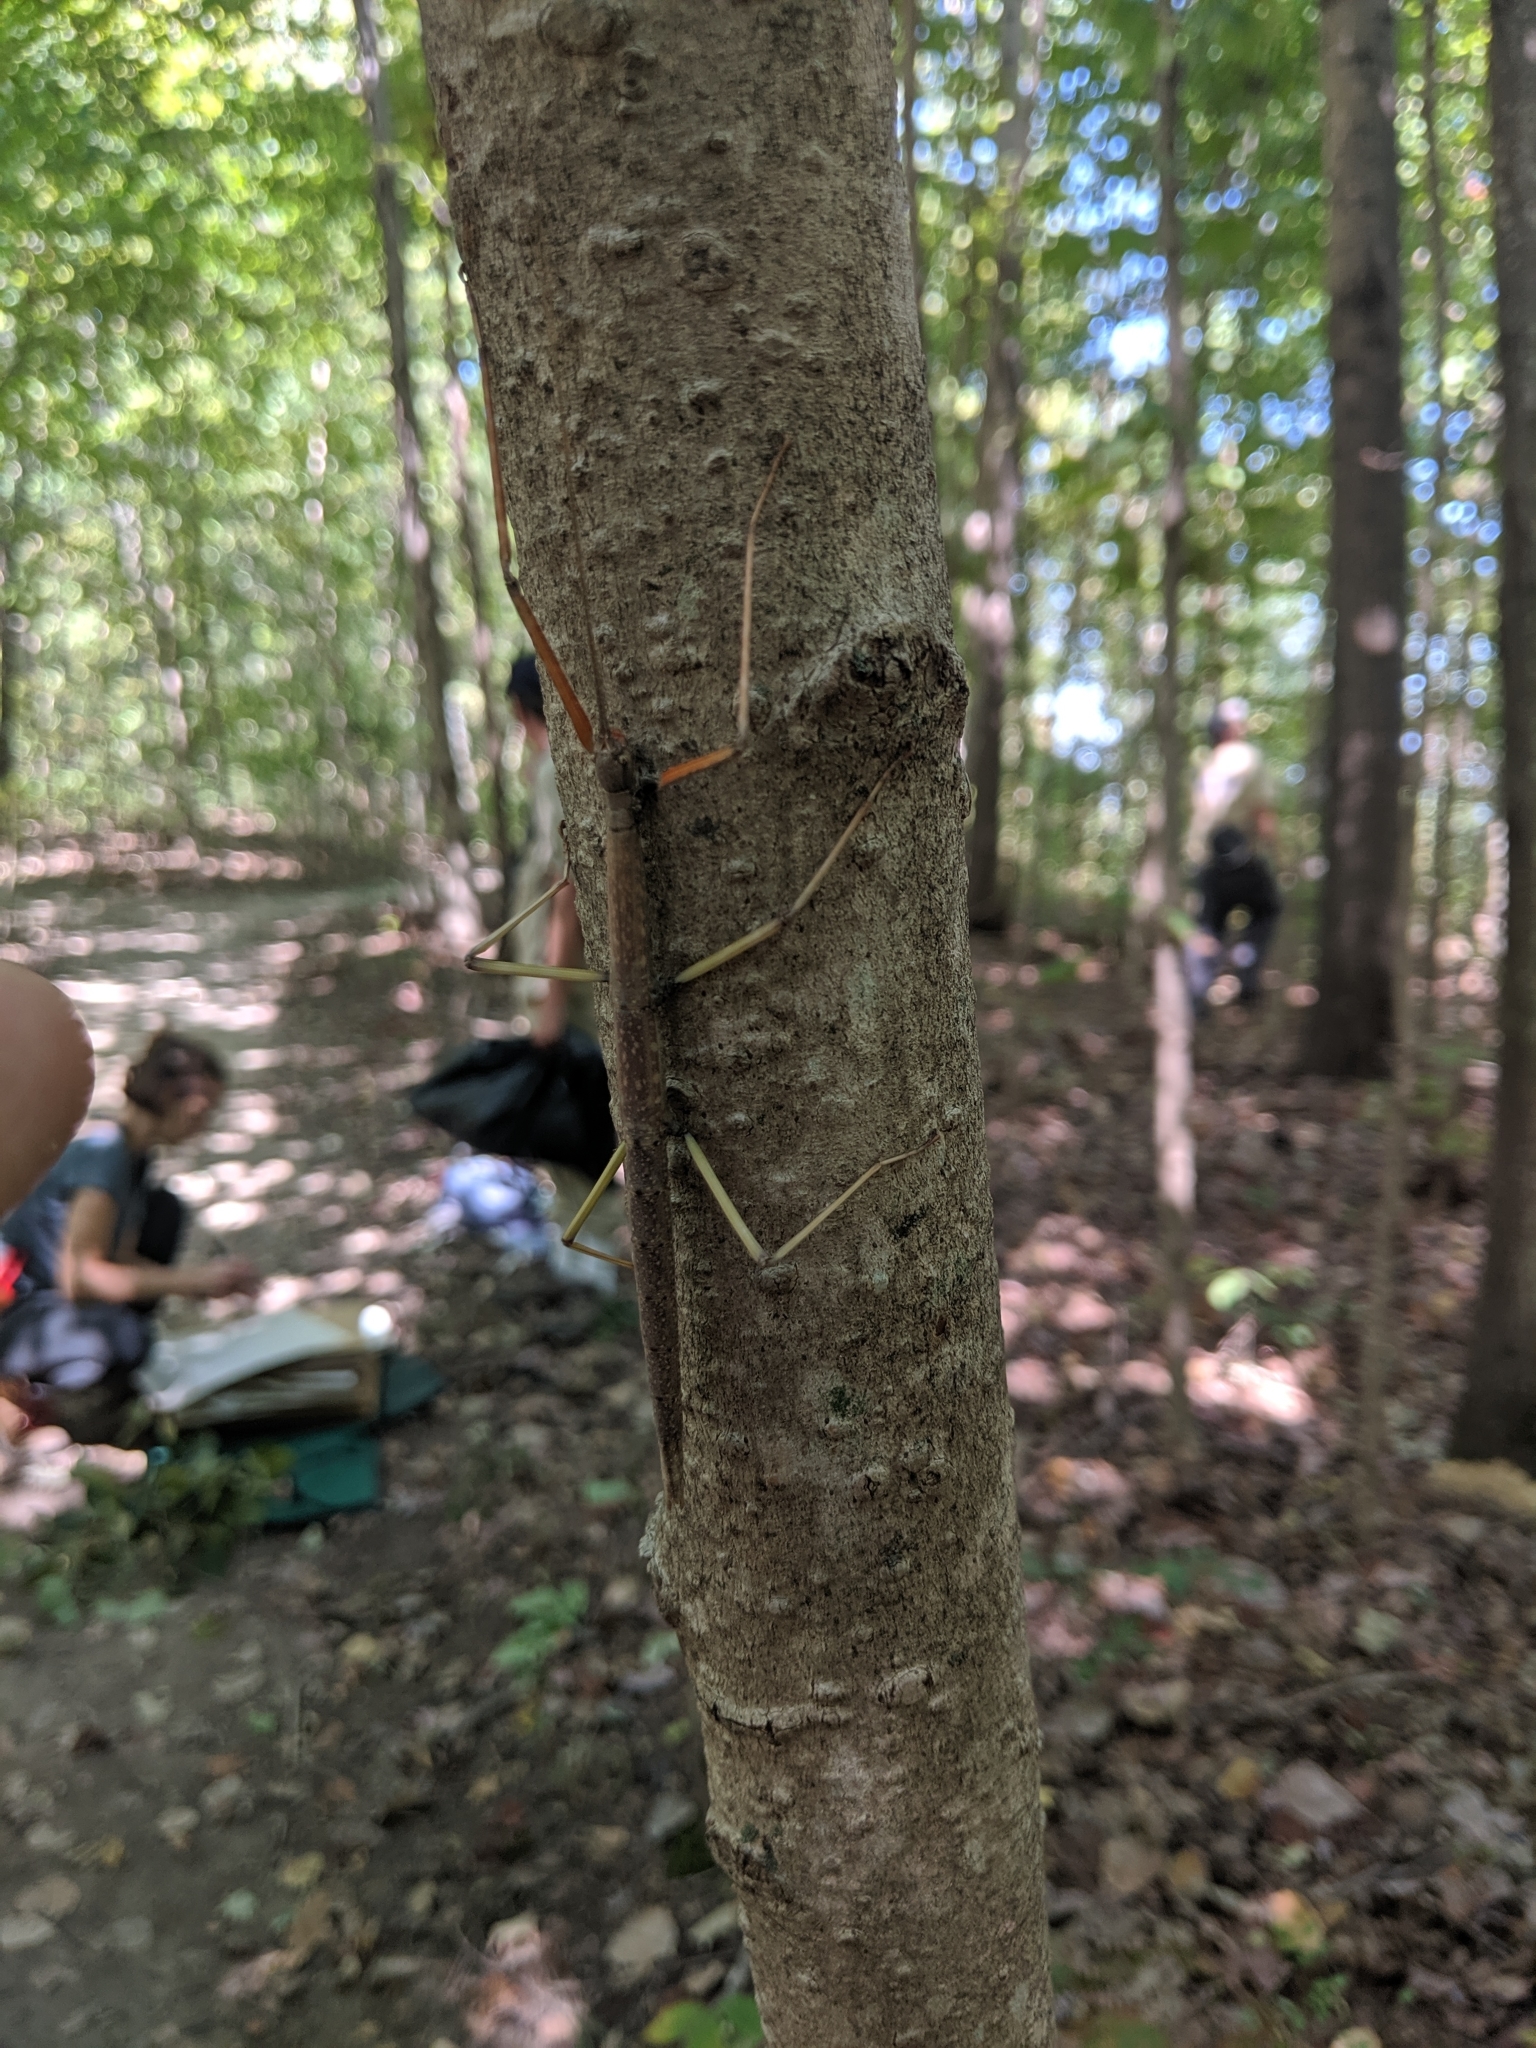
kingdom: Animalia
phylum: Arthropoda
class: Insecta
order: Phasmida
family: Diapheromeridae
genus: Diapheromera
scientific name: Diapheromera femorata
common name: Common american walkingstick
